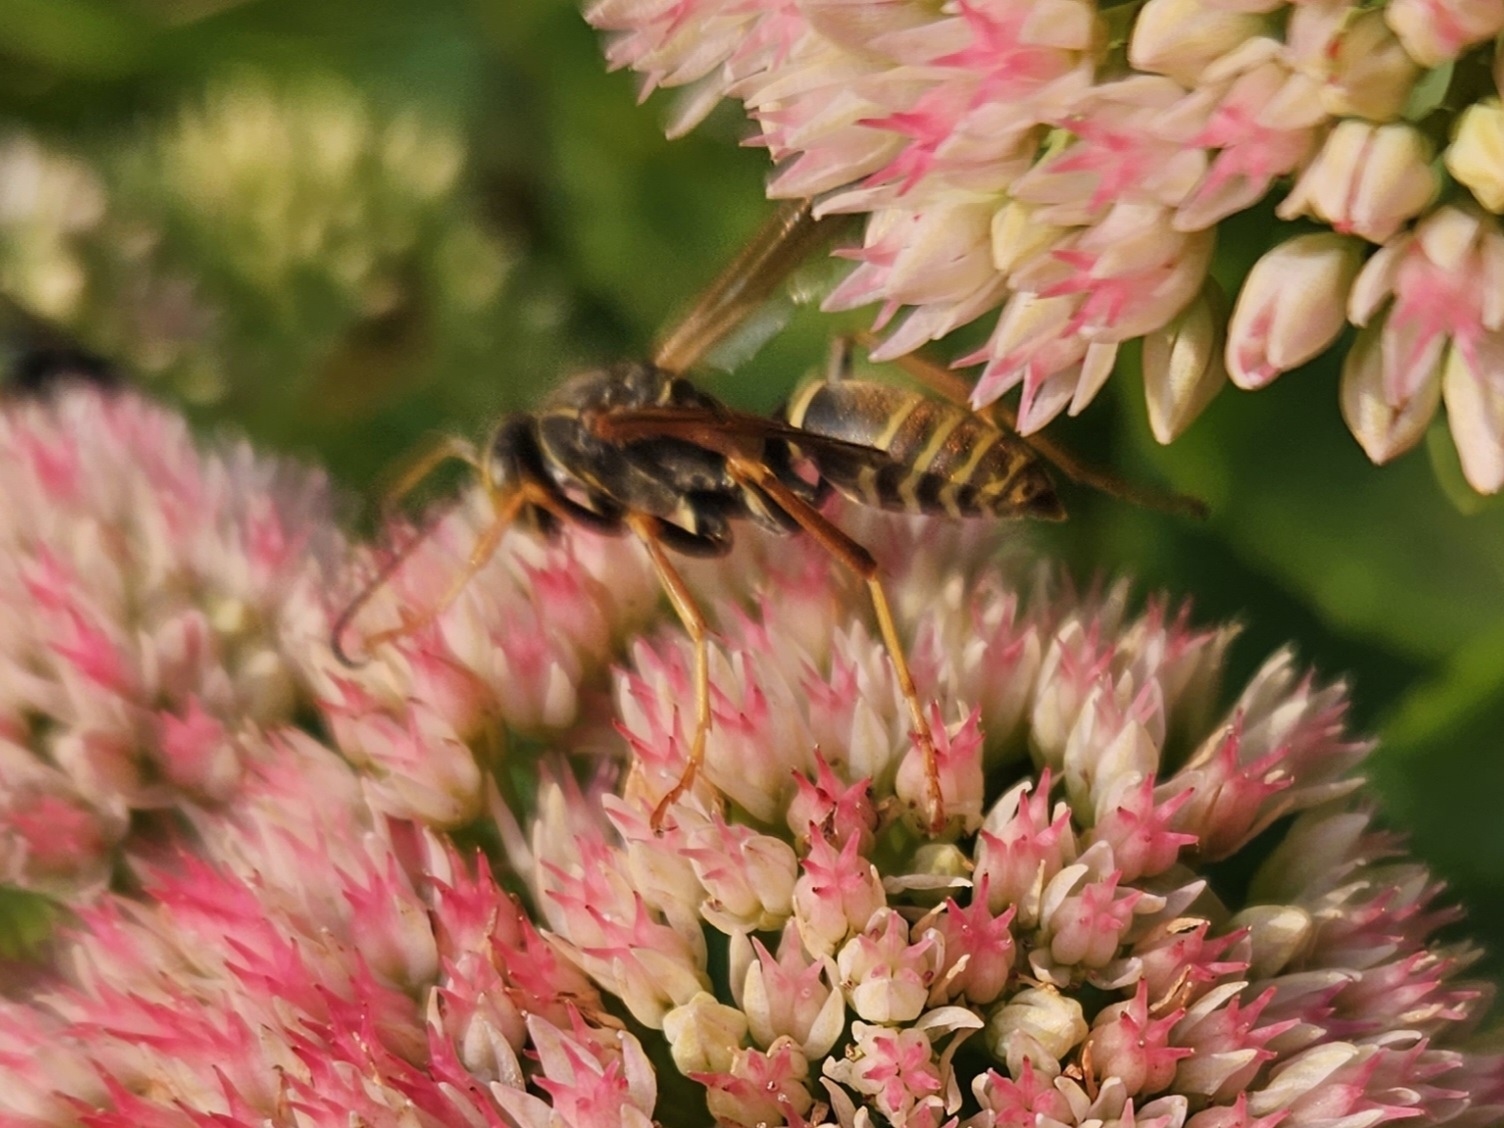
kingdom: Animalia
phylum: Arthropoda
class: Insecta
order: Hymenoptera
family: Eumenidae
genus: Polistes
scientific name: Polistes fuscatus
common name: Dark paper wasp
